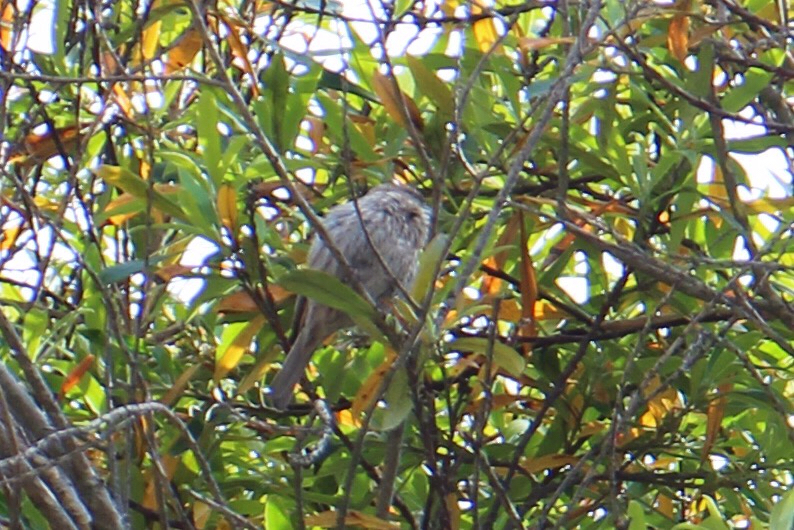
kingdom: Animalia
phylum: Chordata
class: Aves
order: Passeriformes
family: Fringillidae
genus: Haemorhous
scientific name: Haemorhous mexicanus
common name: House finch
